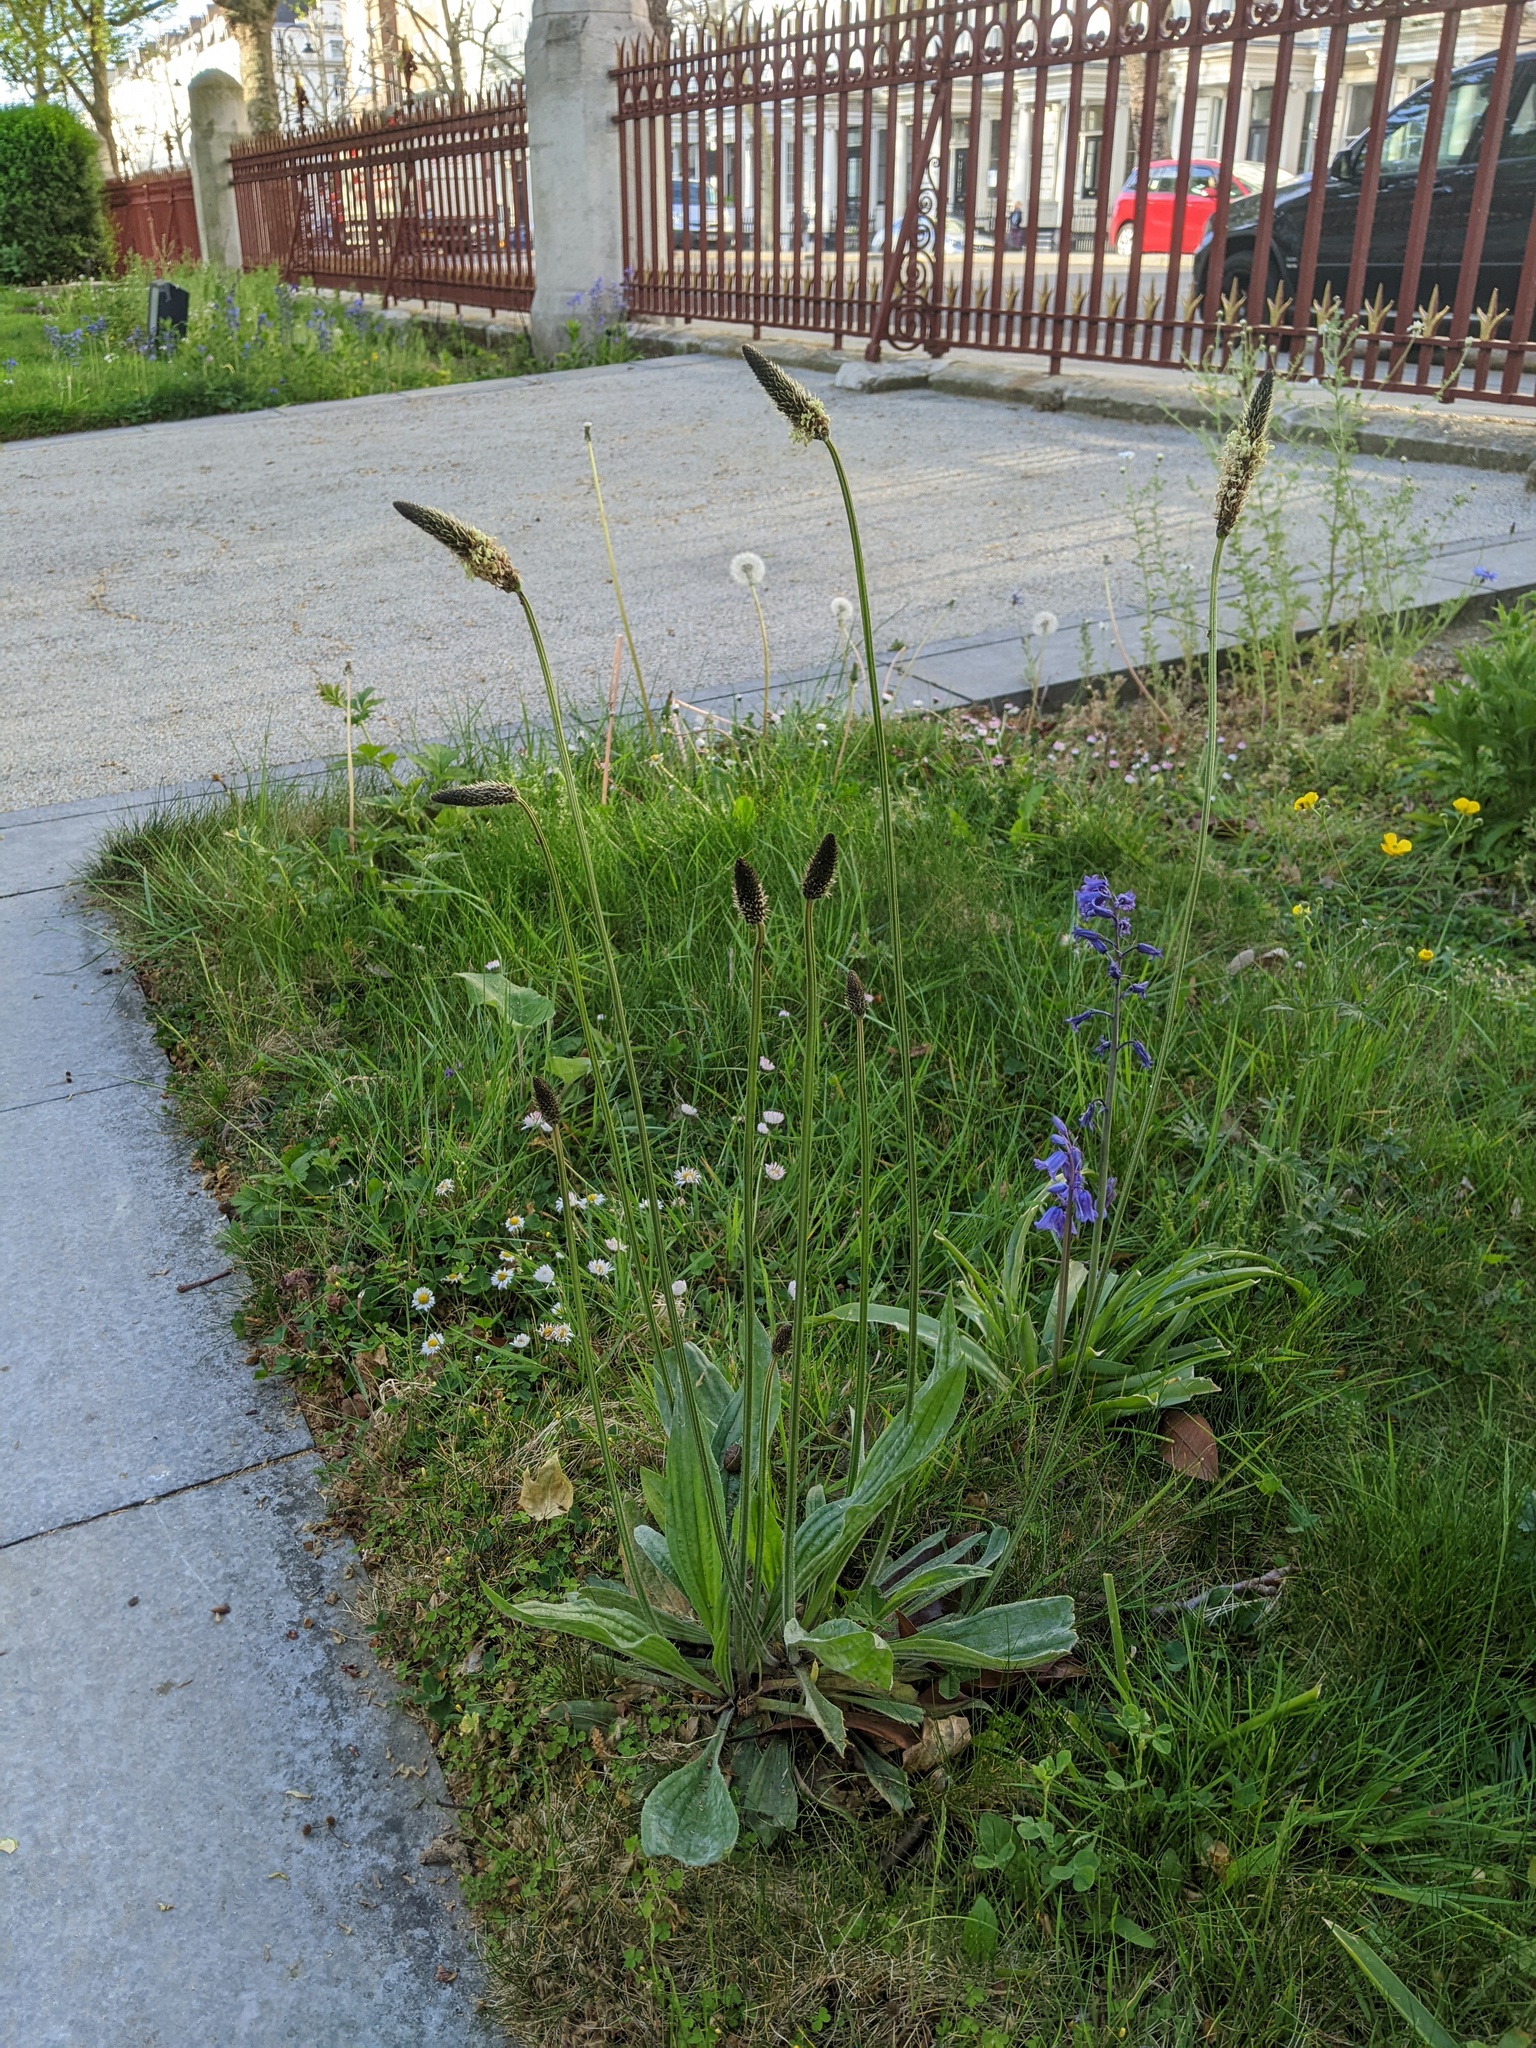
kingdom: Plantae
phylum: Tracheophyta
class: Magnoliopsida
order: Lamiales
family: Plantaginaceae
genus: Plantago
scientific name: Plantago lanceolata
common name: Ribwort plantain
